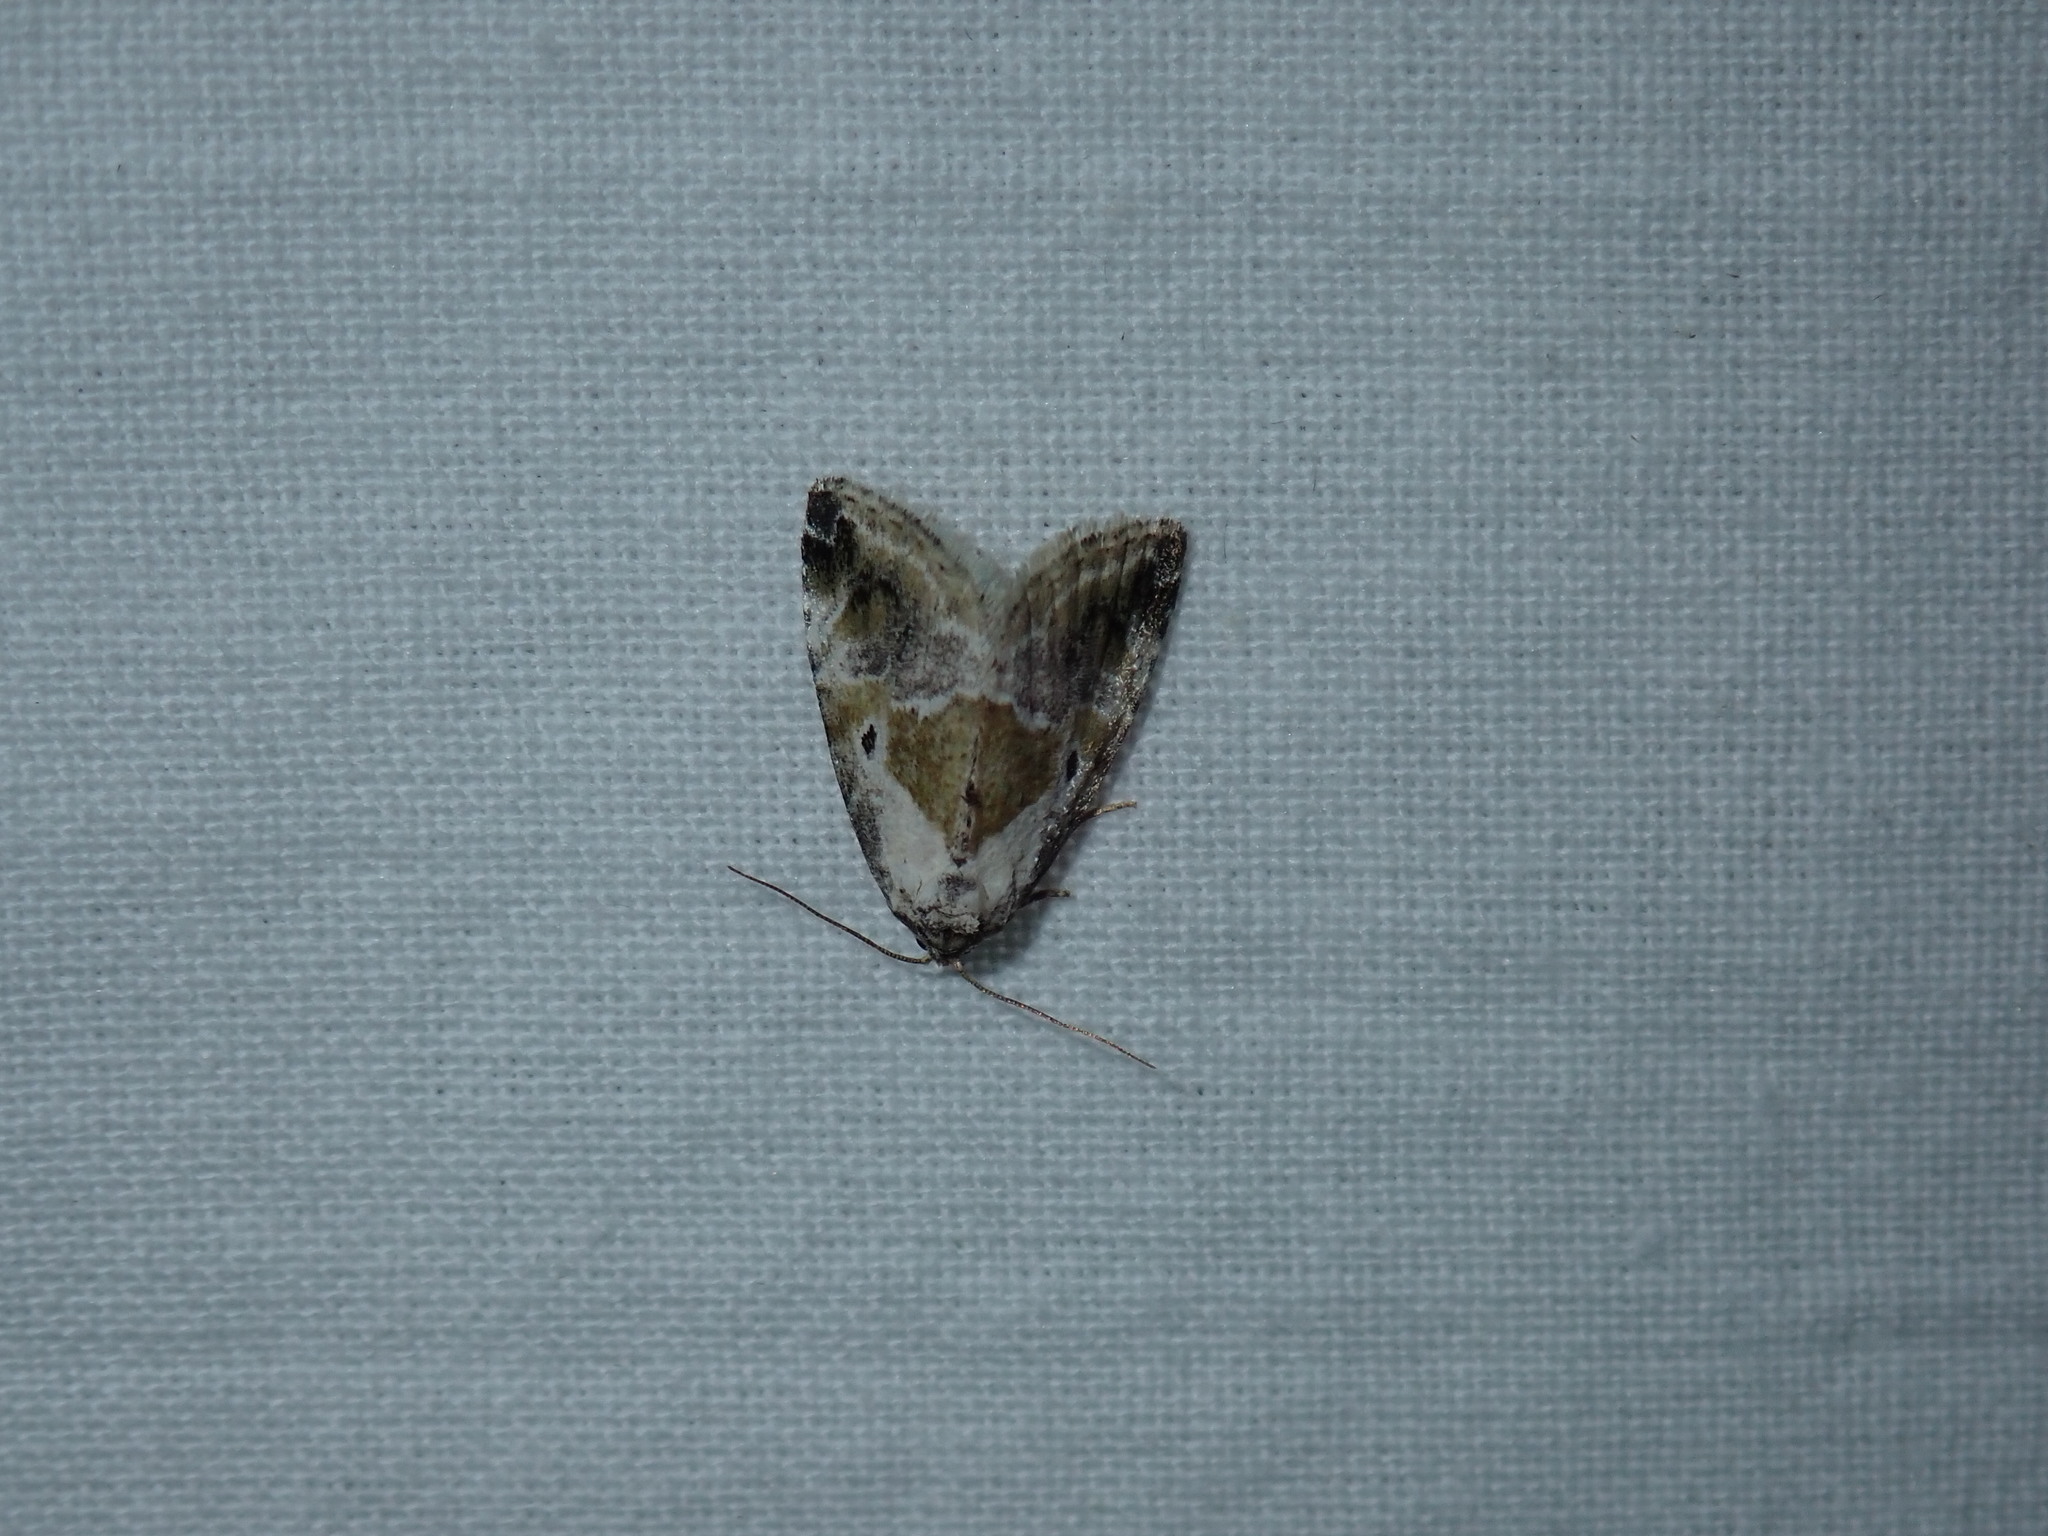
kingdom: Animalia
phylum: Arthropoda
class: Insecta
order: Lepidoptera
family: Noctuidae
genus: Maliattha
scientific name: Maliattha synochitis
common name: Black-dotted glyph
